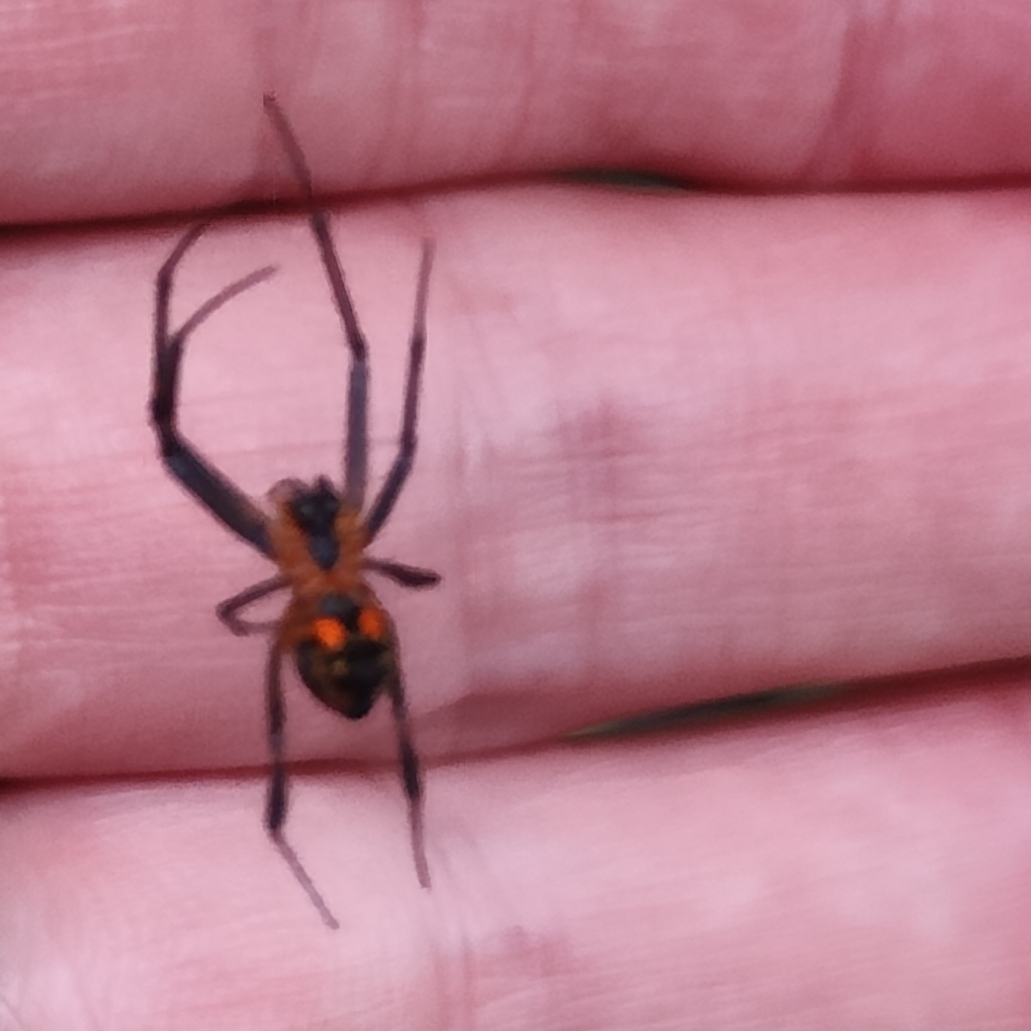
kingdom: Animalia
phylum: Arthropoda
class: Arachnida
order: Araneae
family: Tetragnathidae
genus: Leucauge
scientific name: Leucauge fastigata
